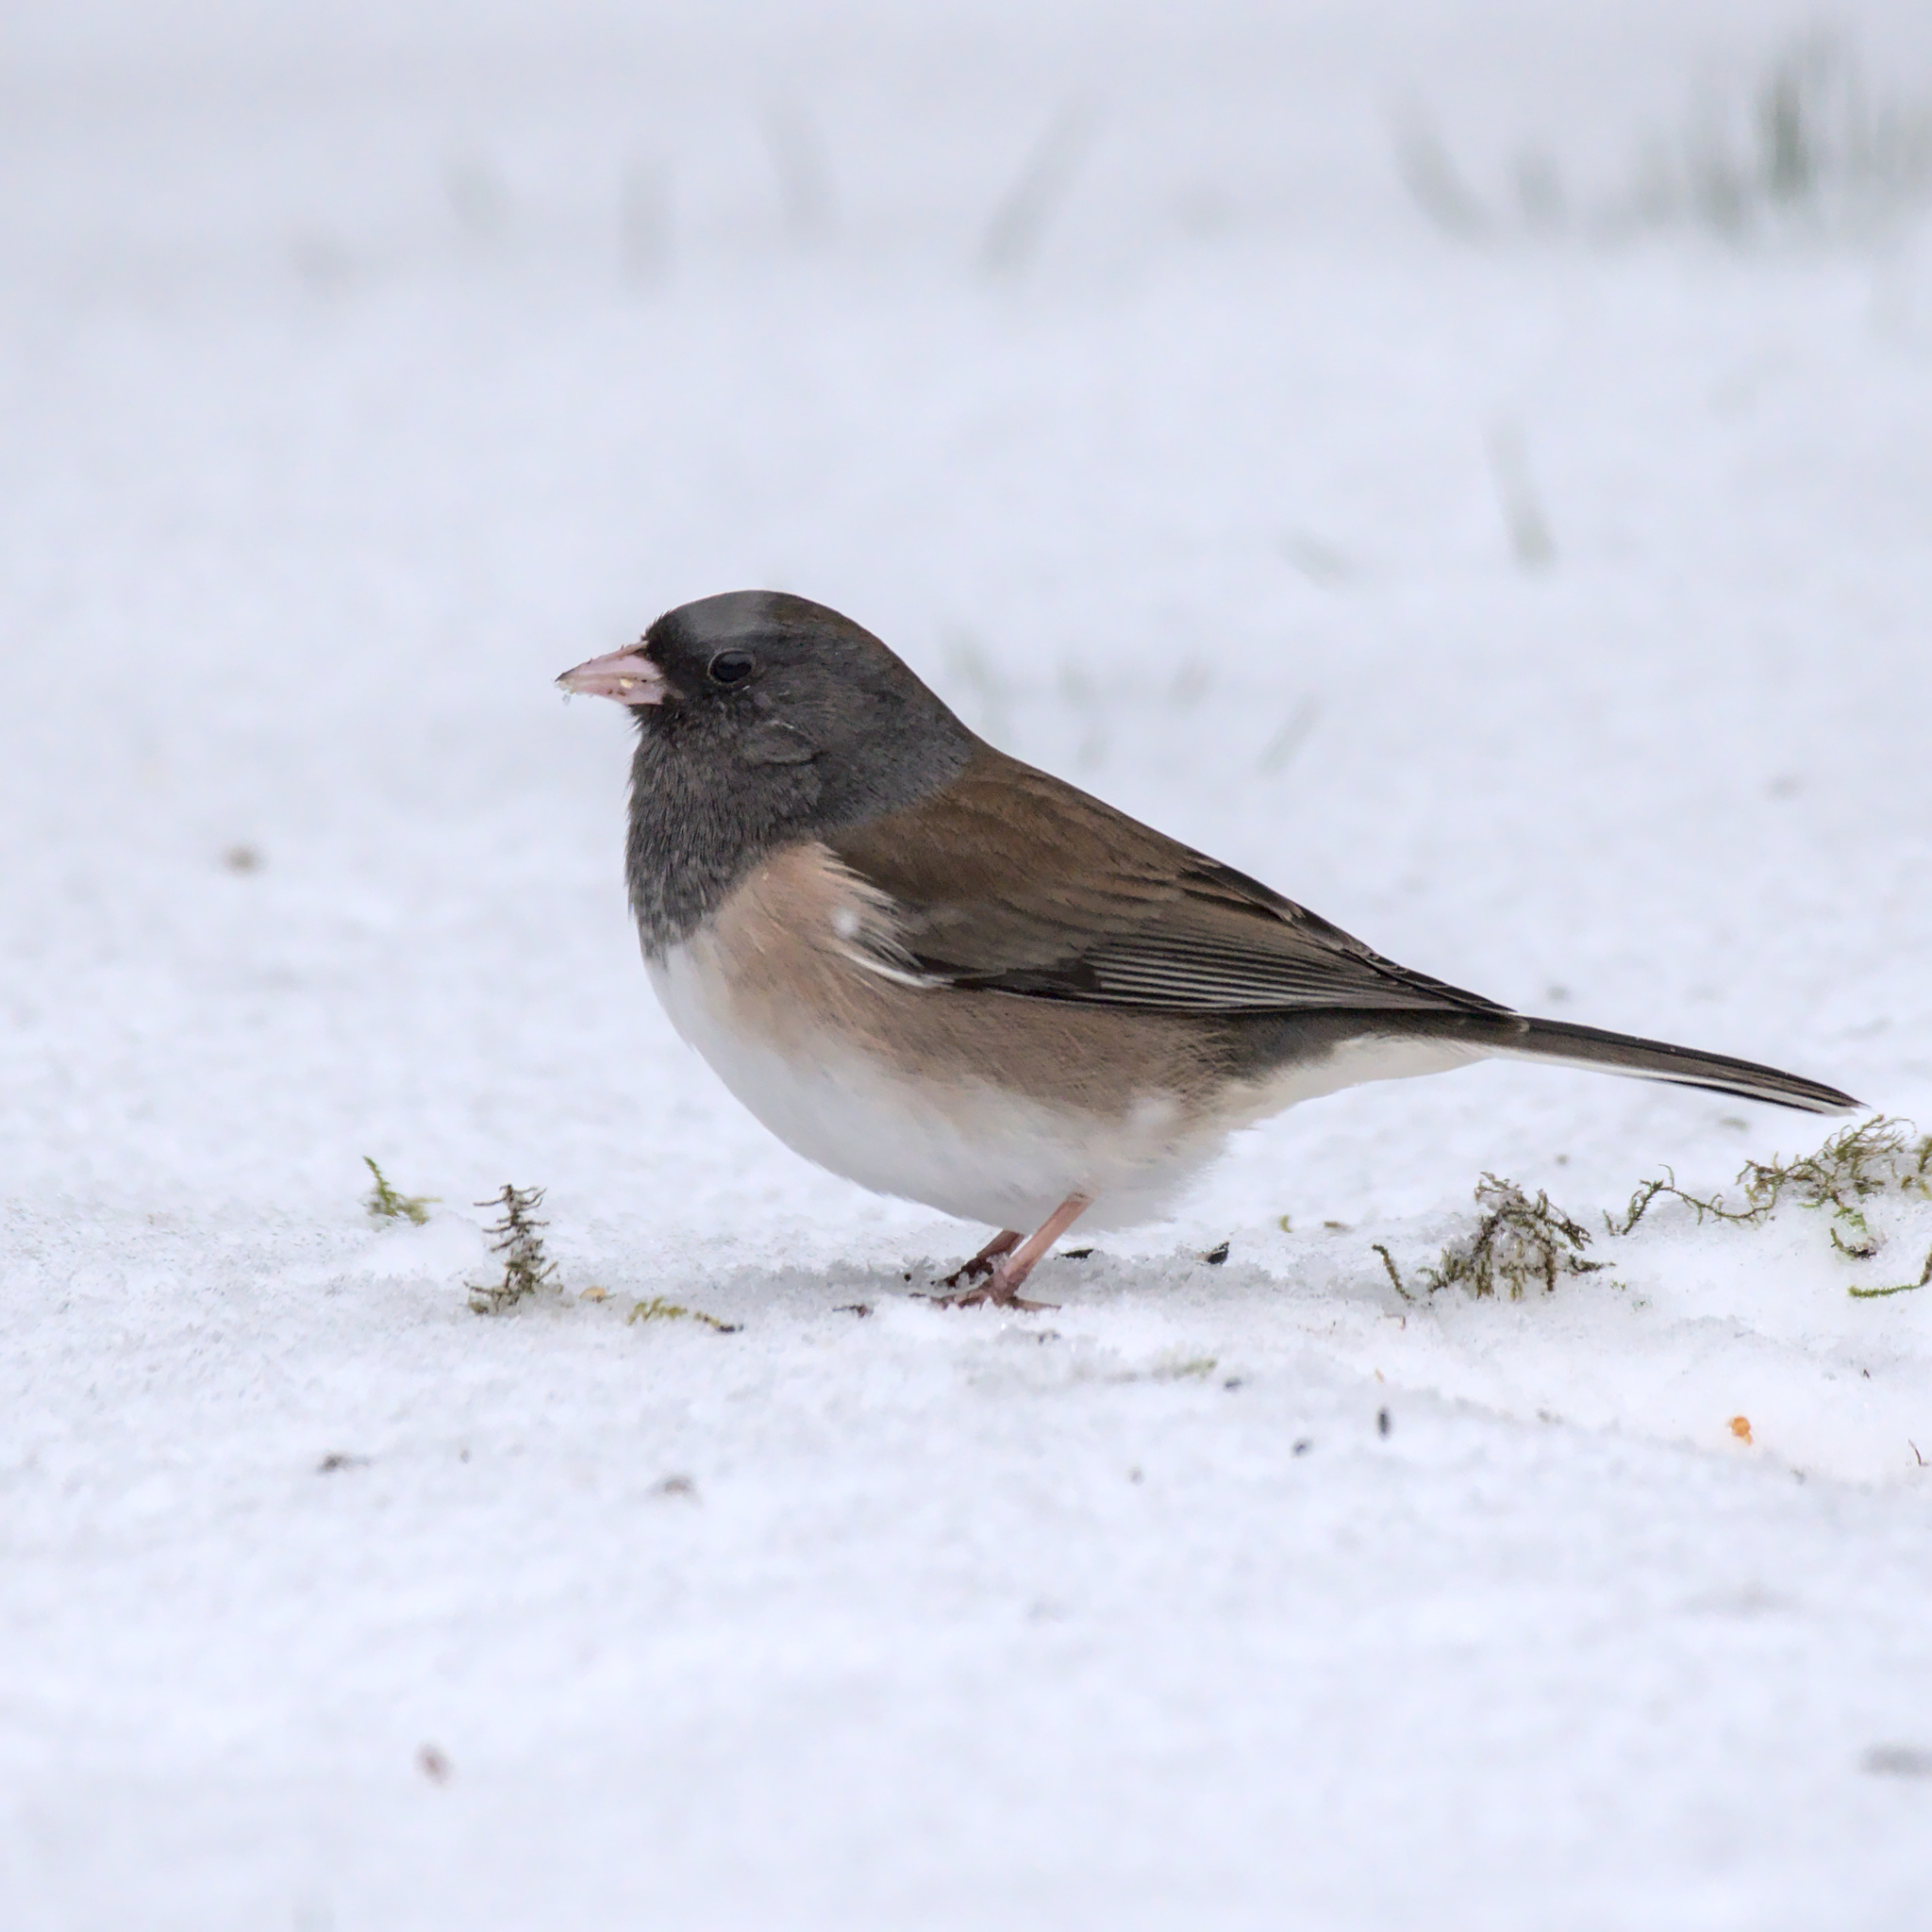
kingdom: Animalia
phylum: Chordata
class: Aves
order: Passeriformes
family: Passerellidae
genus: Junco
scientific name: Junco hyemalis
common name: Dark-eyed junco
